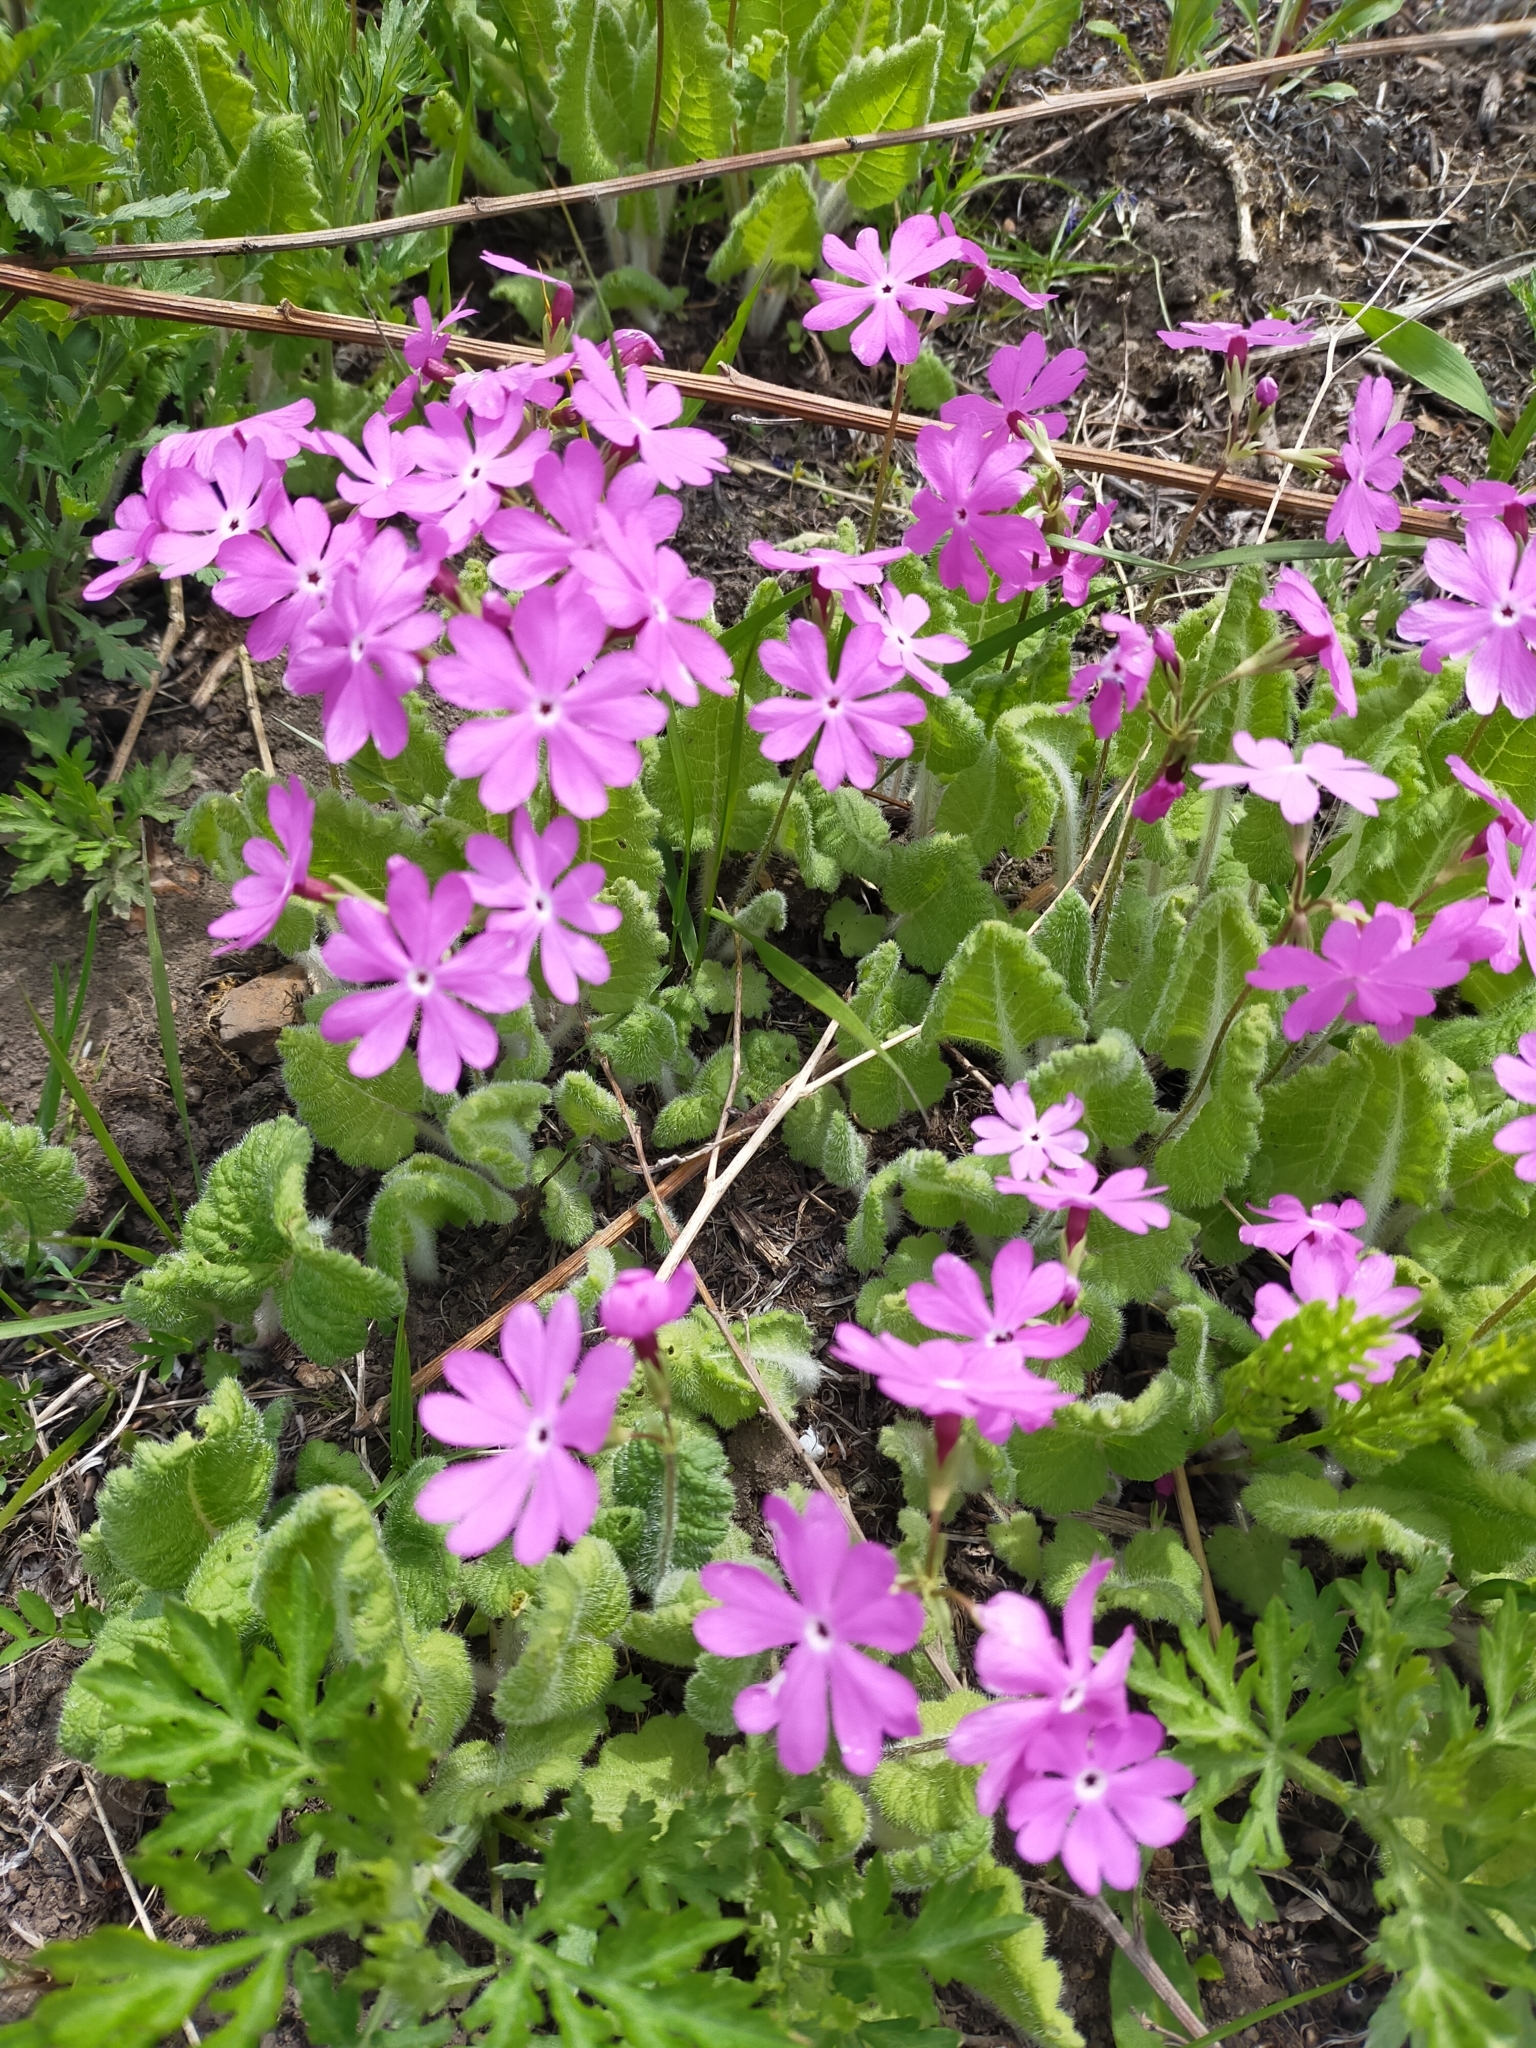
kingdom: Plantae
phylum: Tracheophyta
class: Magnoliopsida
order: Ericales
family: Primulaceae
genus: Primula
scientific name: Primula sieboldii
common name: Japanese primrose
